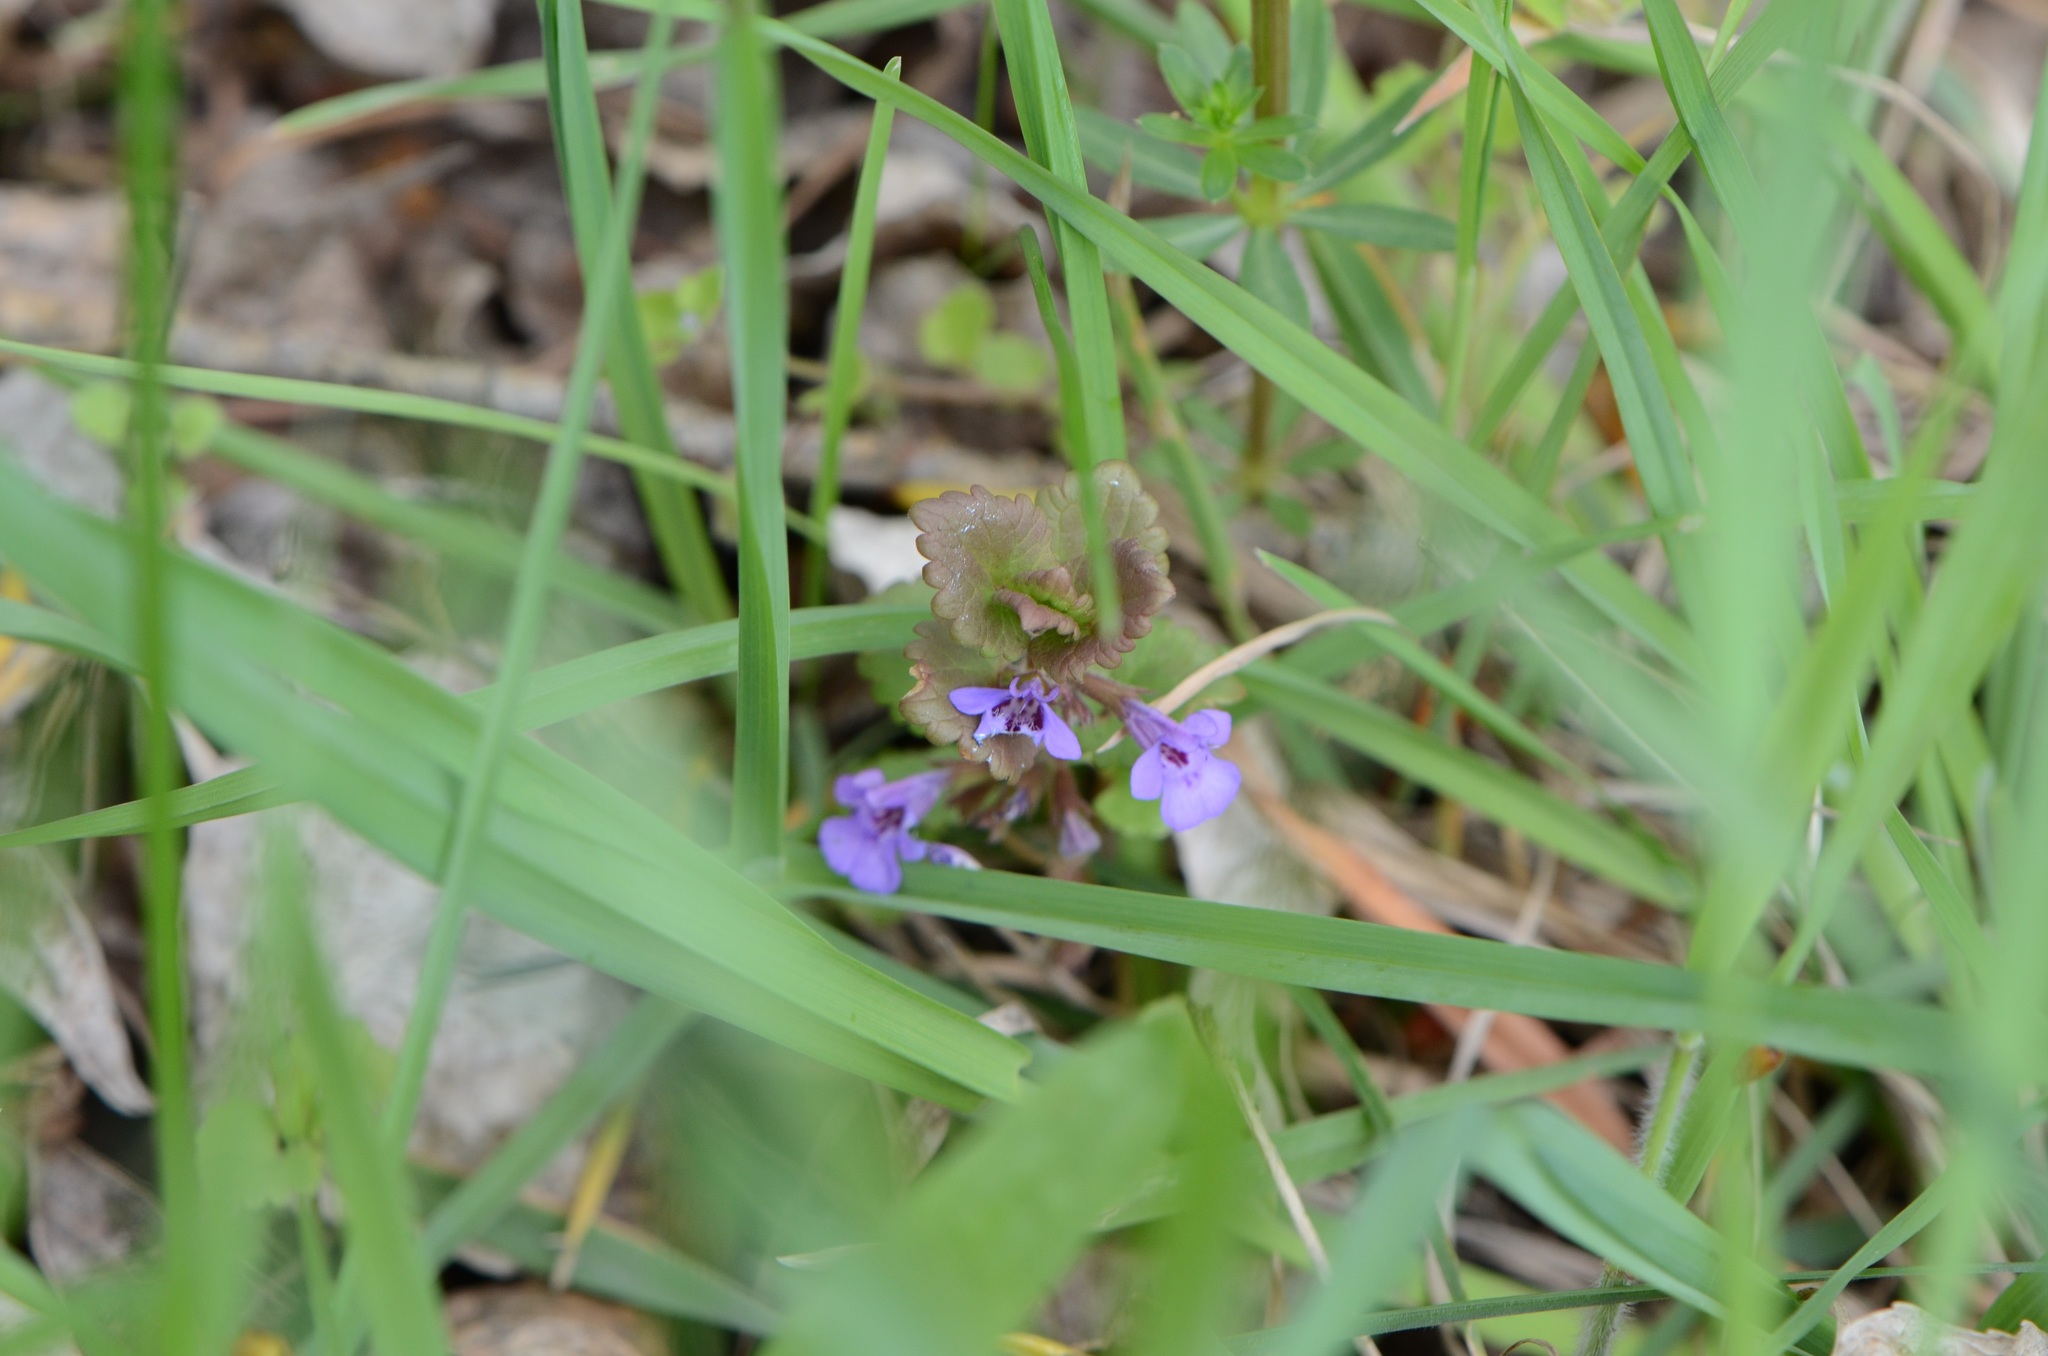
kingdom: Plantae
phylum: Tracheophyta
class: Magnoliopsida
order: Lamiales
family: Lamiaceae
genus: Glechoma
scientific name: Glechoma hederacea
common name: Ground ivy
